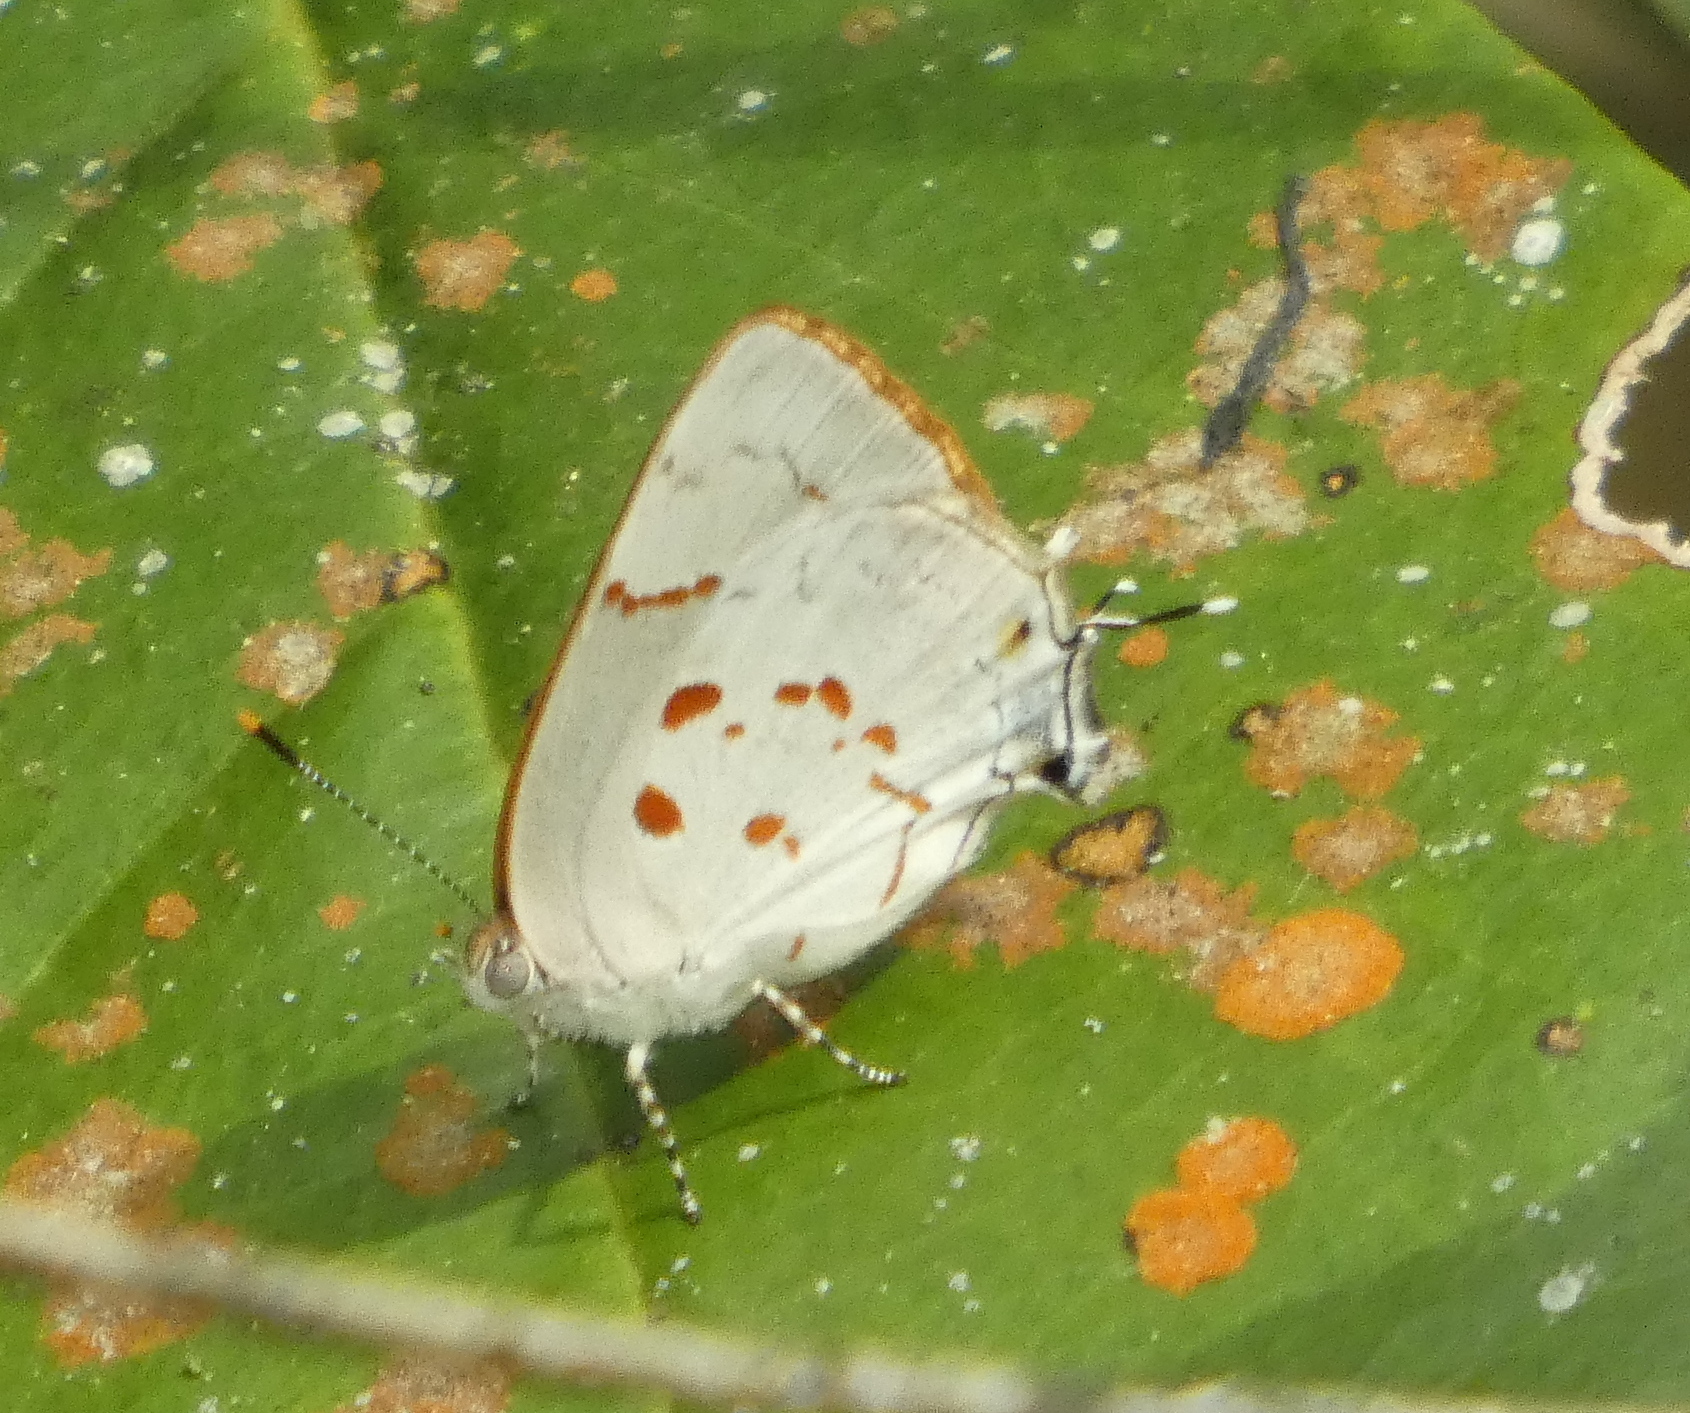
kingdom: Animalia
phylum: Arthropoda
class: Insecta
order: Lepidoptera
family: Lycaenidae
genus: Tmolus
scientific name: Tmolus echion
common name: Red-spotted hairstreak
